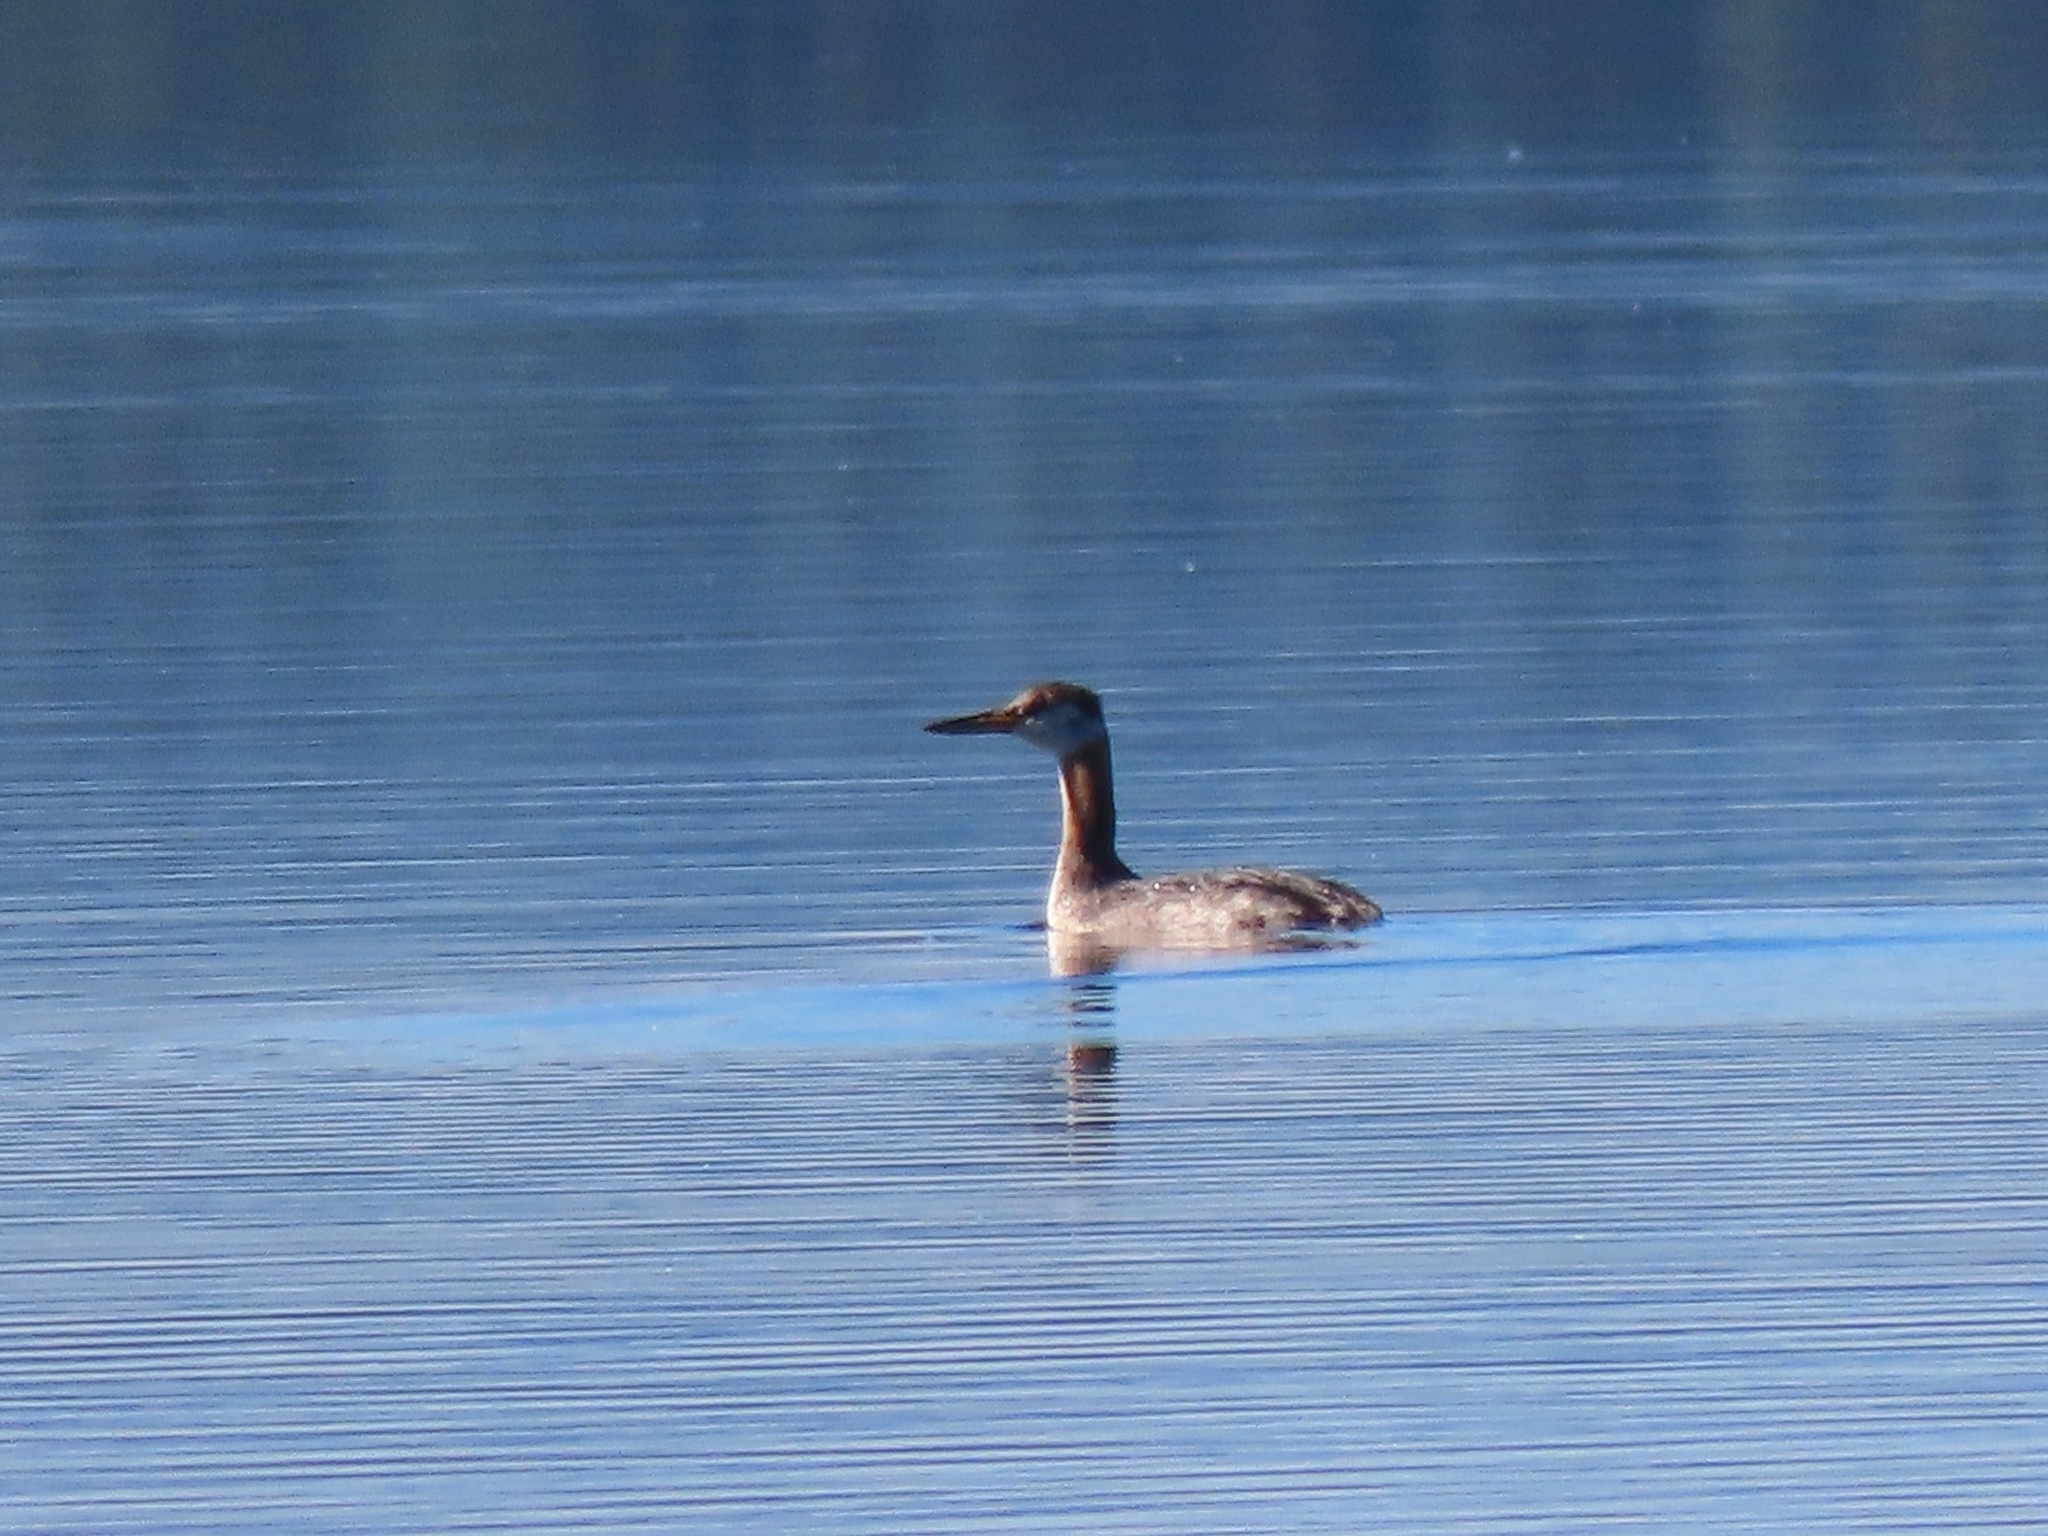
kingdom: Animalia
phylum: Chordata
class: Aves
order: Podicipediformes
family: Podicipedidae
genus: Podiceps
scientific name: Podiceps grisegena
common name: Red-necked grebe
